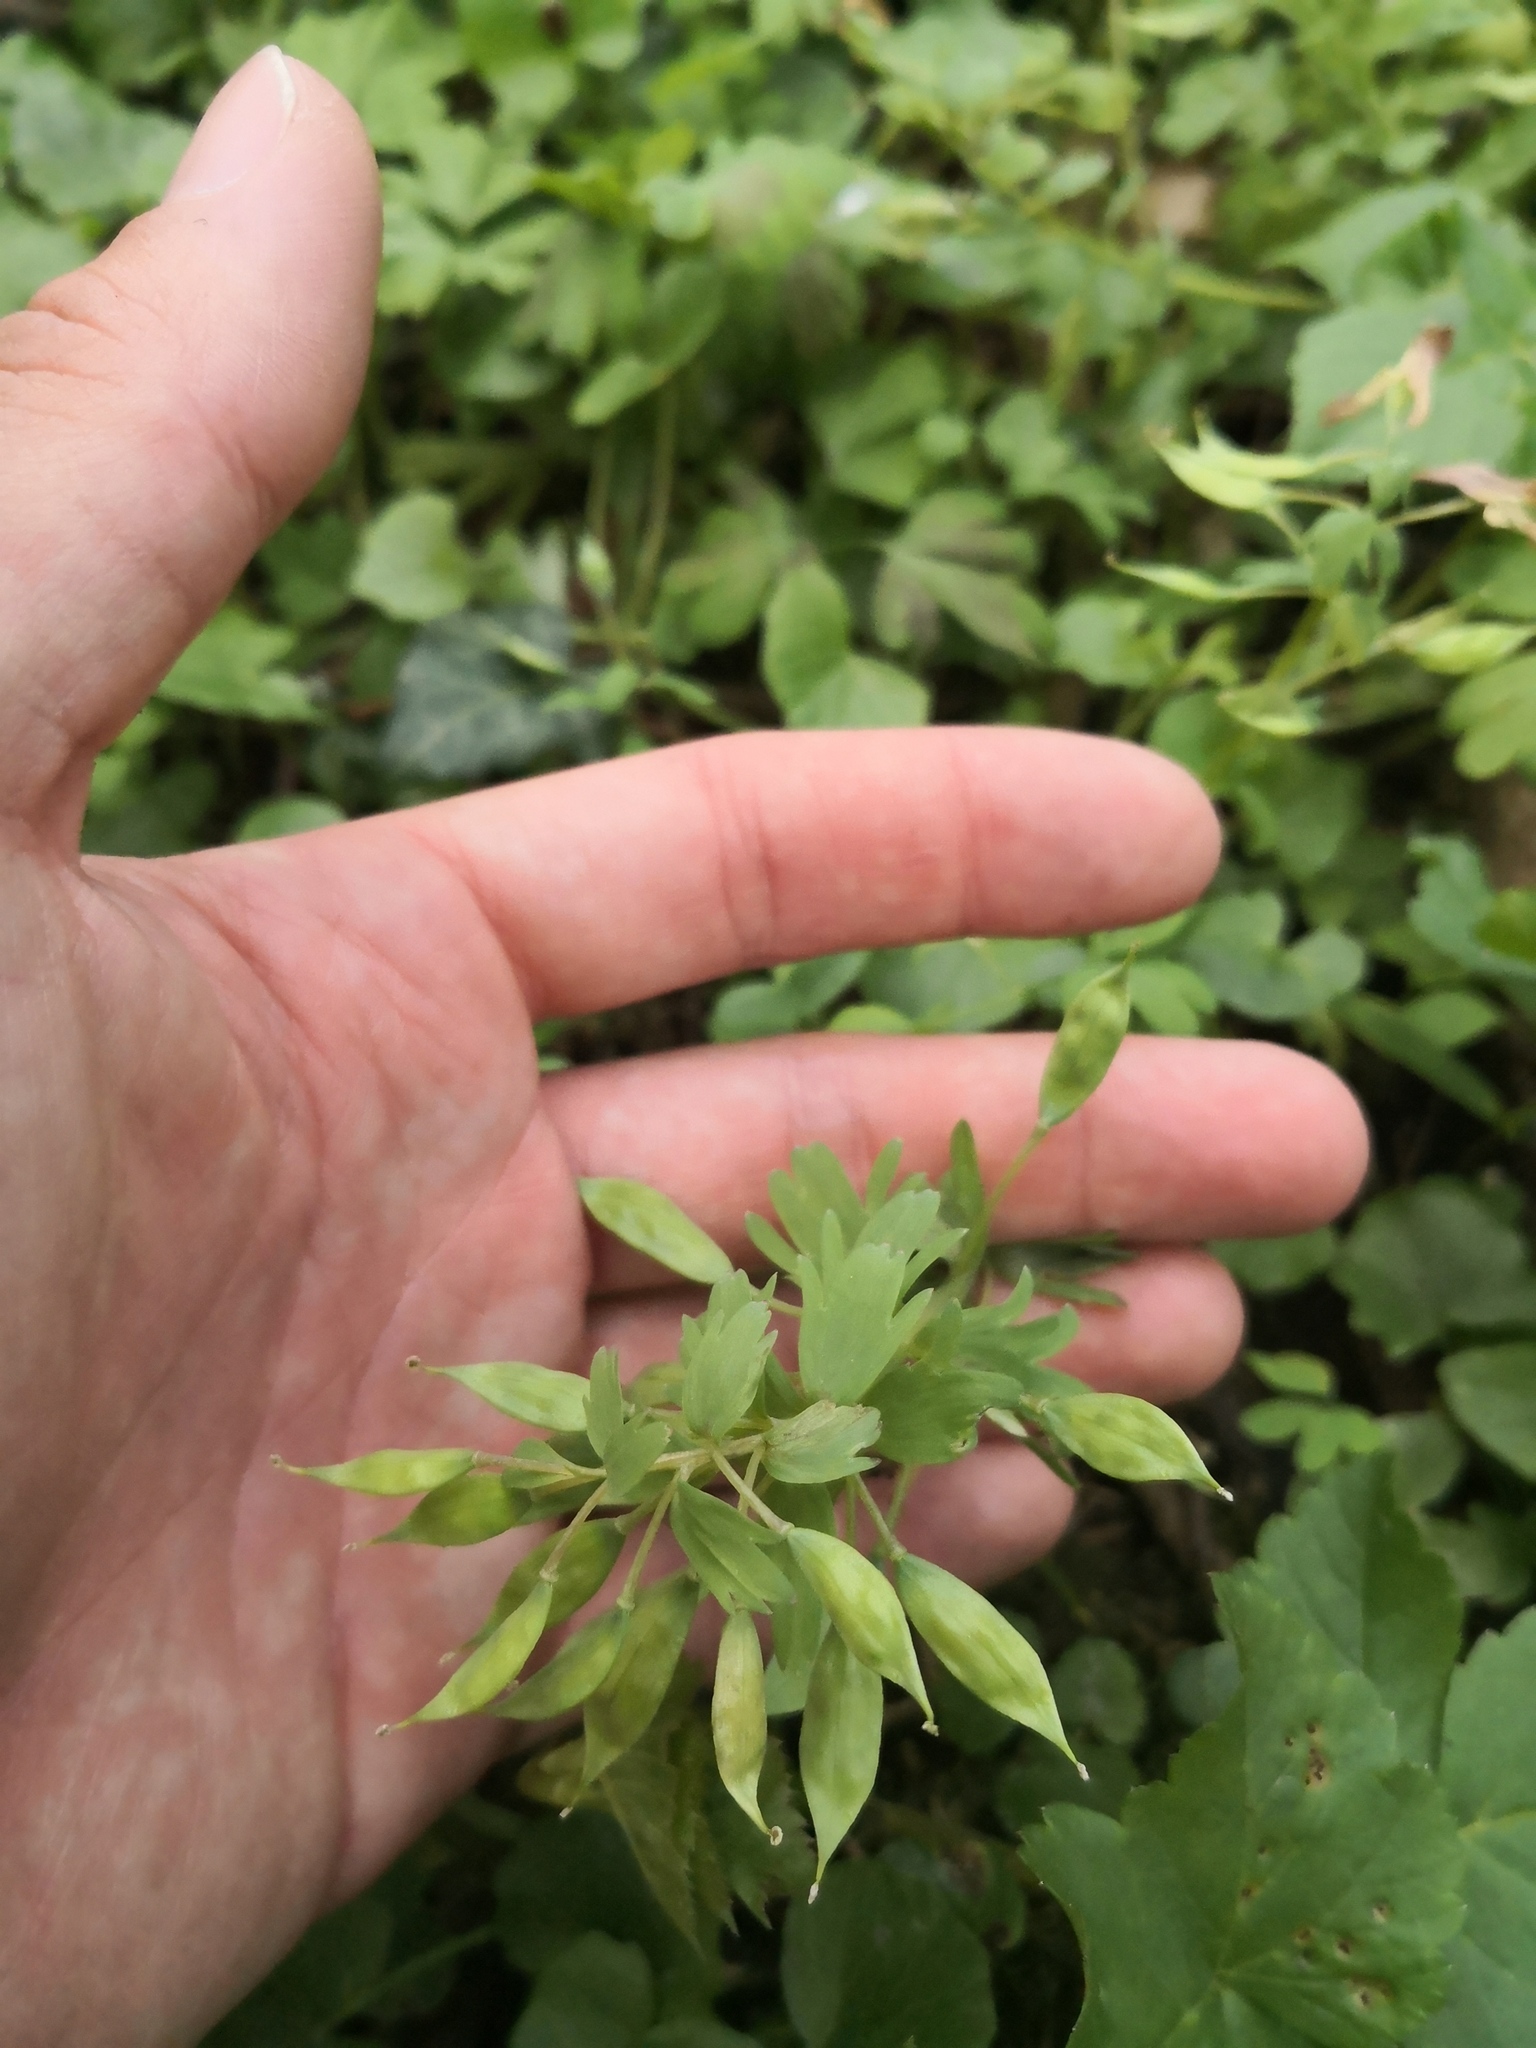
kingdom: Plantae
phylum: Tracheophyta
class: Magnoliopsida
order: Ranunculales
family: Papaveraceae
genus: Corydalis
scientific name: Corydalis solida
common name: Bird-in-a-bush
